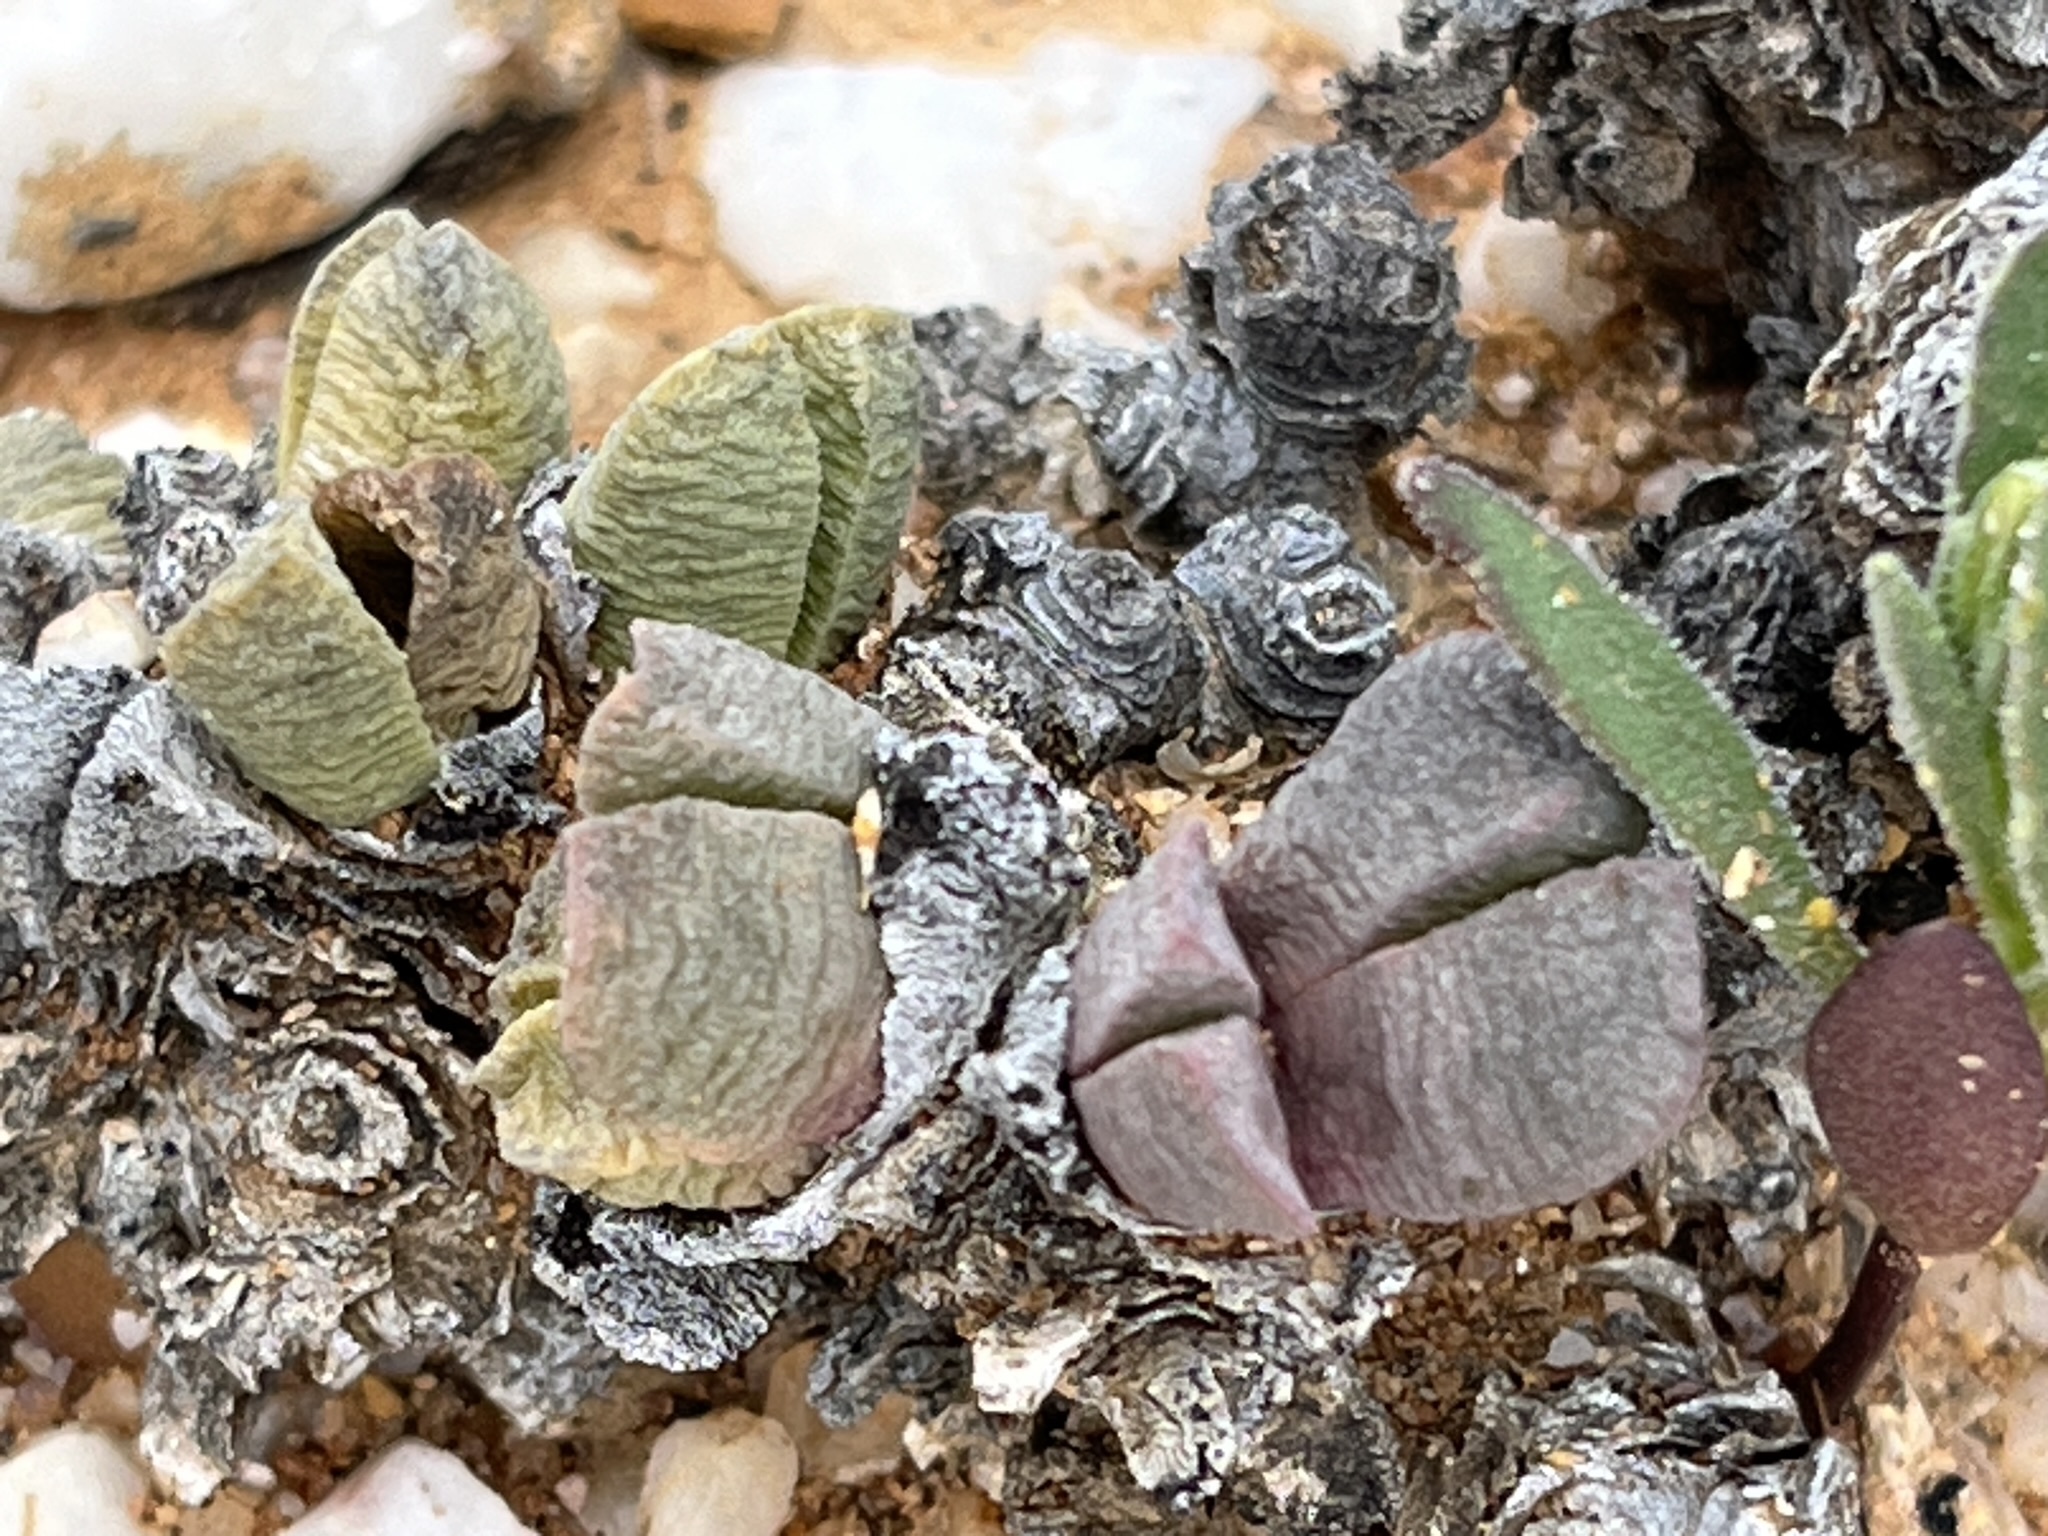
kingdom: Plantae
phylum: Tracheophyta
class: Magnoliopsida
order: Caryophyllales
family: Aizoaceae
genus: Cephalophyllum
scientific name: Cephalophyllum spissum
